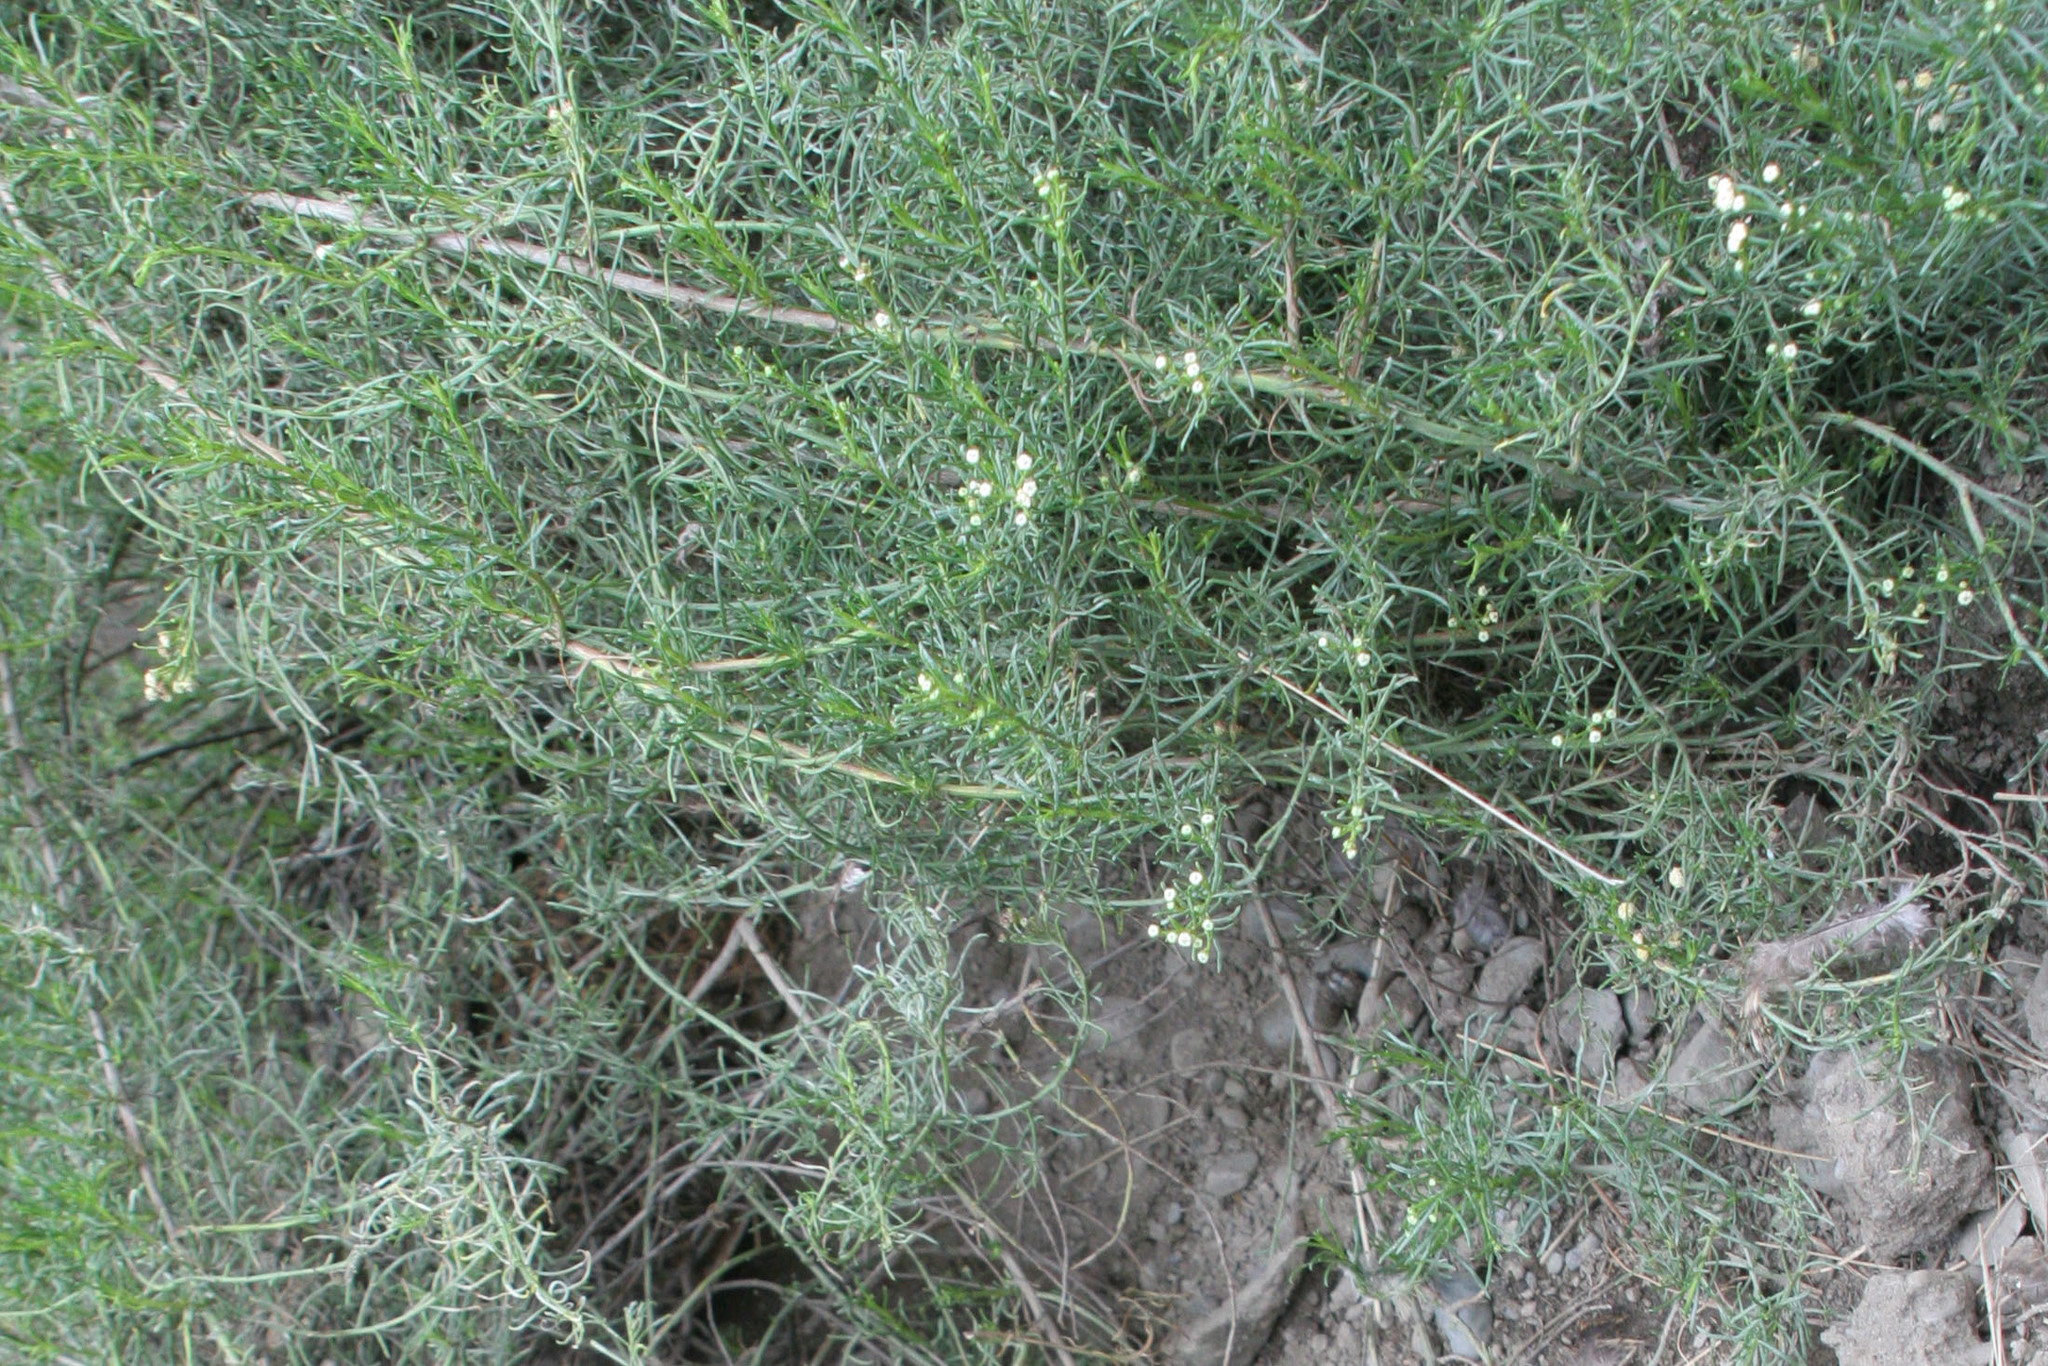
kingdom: Plantae
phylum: Tracheophyta
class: Magnoliopsida
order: Asterales
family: Asteraceae
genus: Baccharis
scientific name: Baccharis bolivensis
